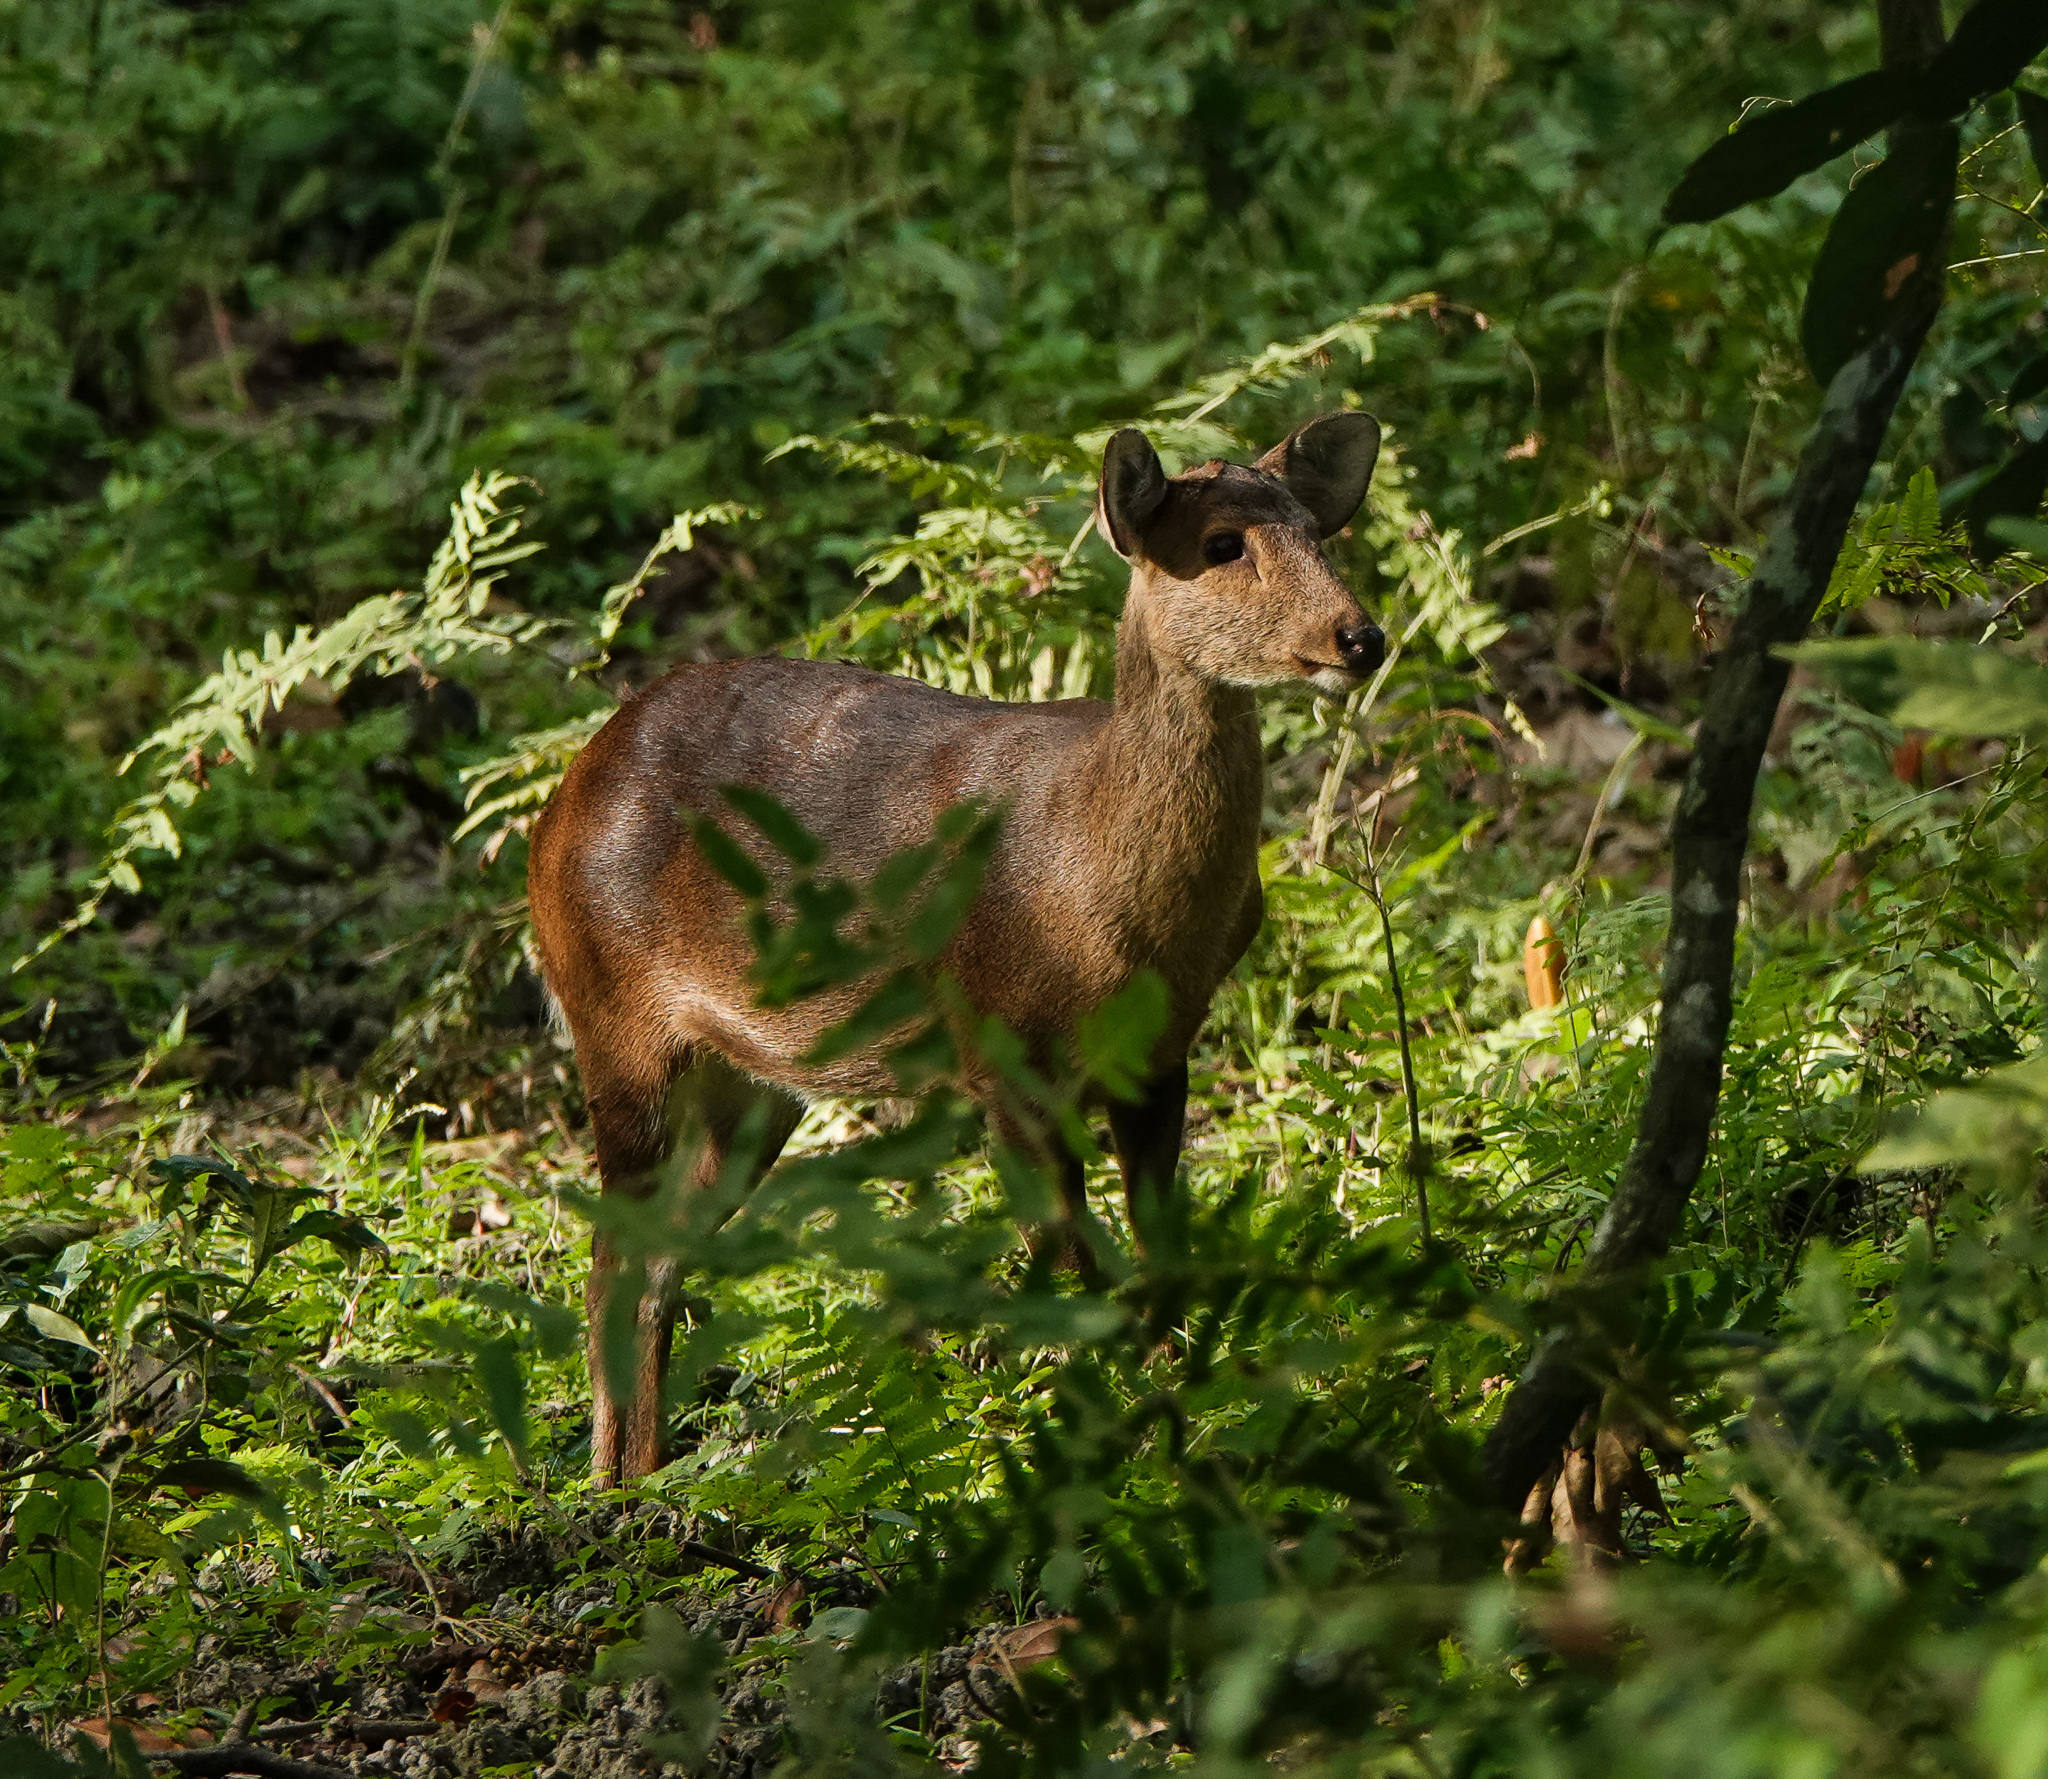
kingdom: Animalia
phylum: Chordata
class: Mammalia
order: Artiodactyla
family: Cervidae
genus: Axis
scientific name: Axis porcinus
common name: Hog deer
